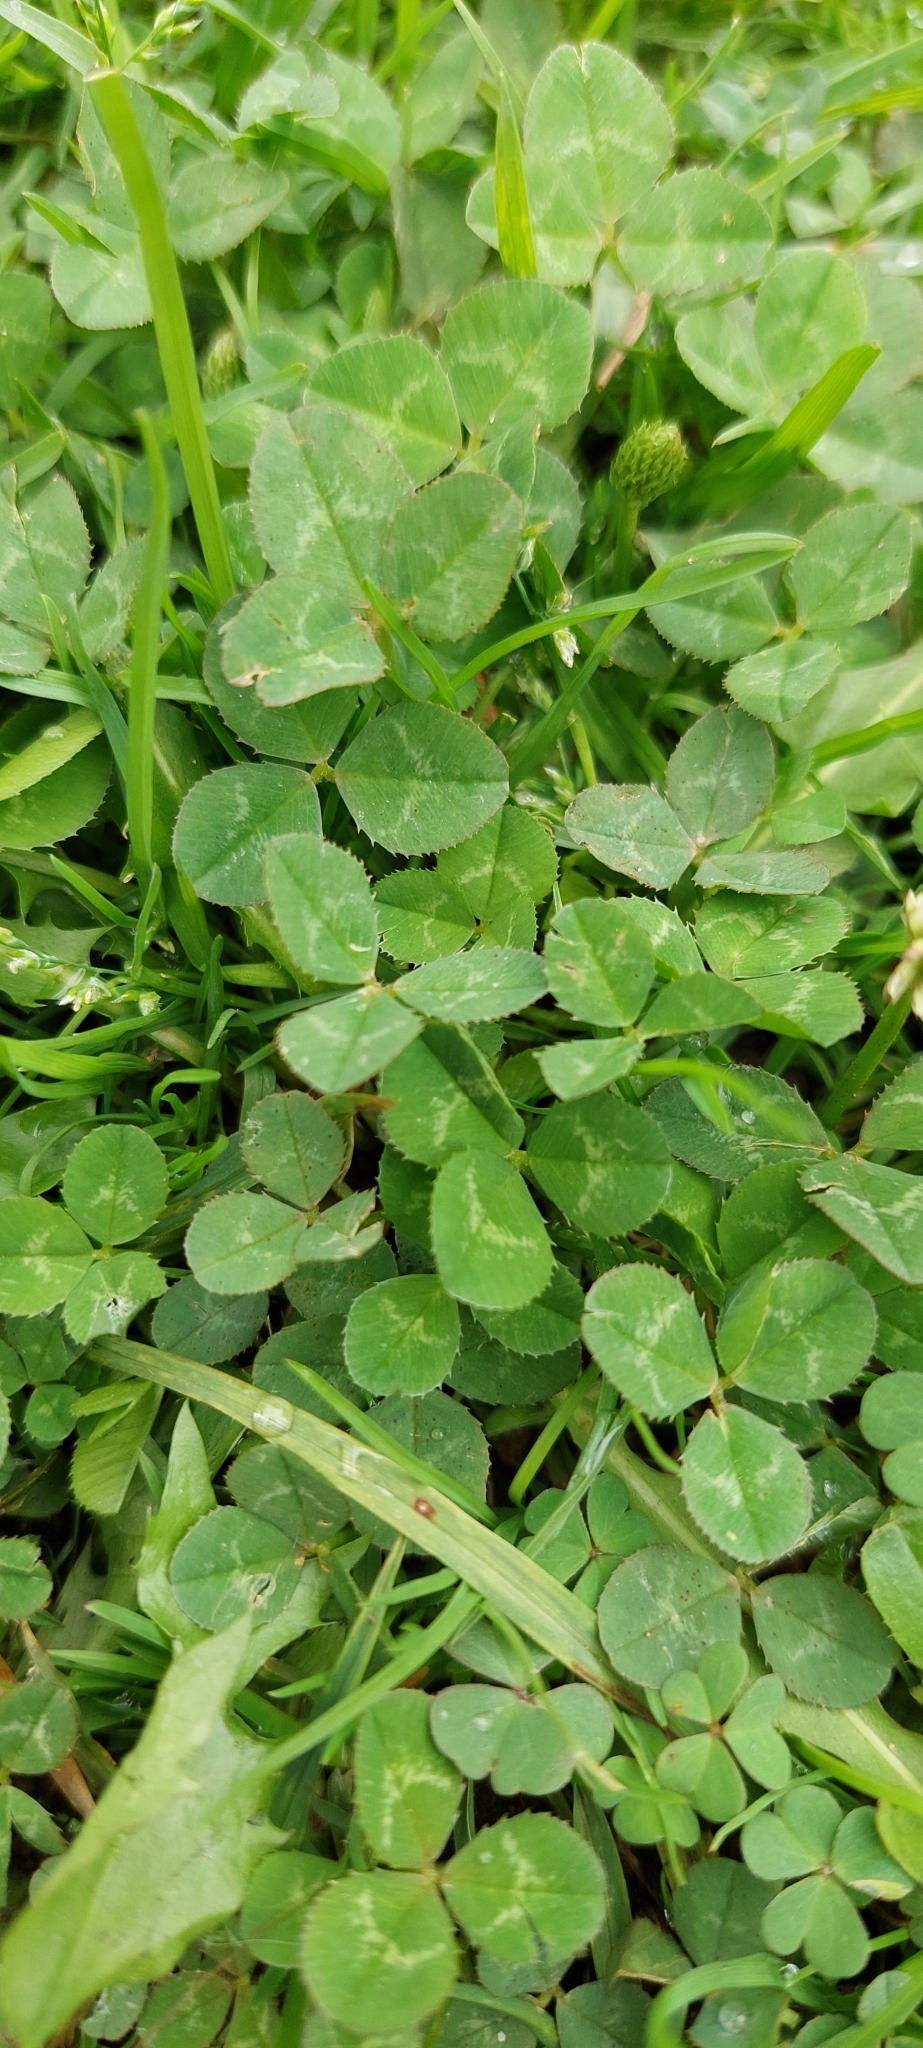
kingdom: Plantae
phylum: Tracheophyta
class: Magnoliopsida
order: Fabales
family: Fabaceae
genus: Trifolium
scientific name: Trifolium repens
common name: White clover
